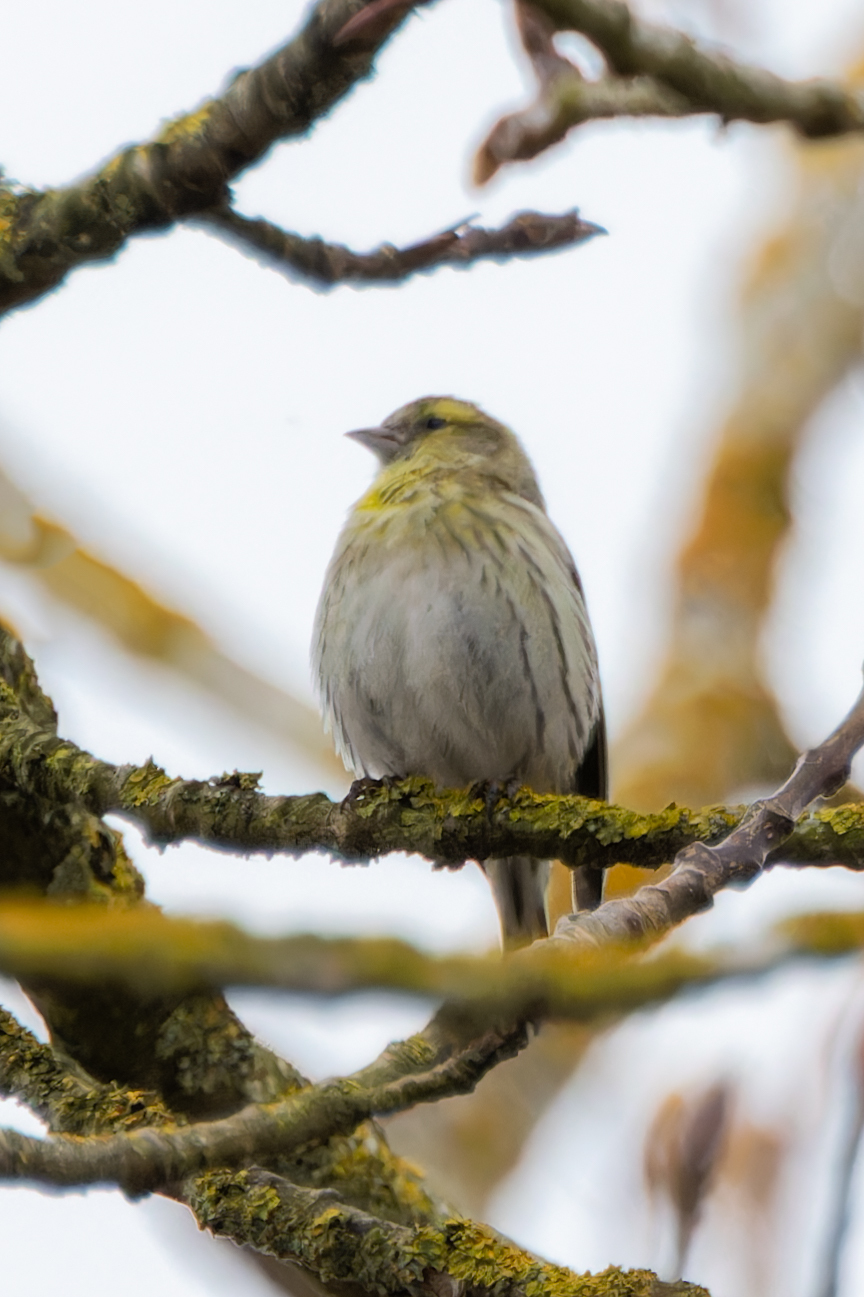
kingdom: Animalia
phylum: Chordata
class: Aves
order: Passeriformes
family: Fringillidae
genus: Spinus
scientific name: Spinus spinus
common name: Eurasian siskin
